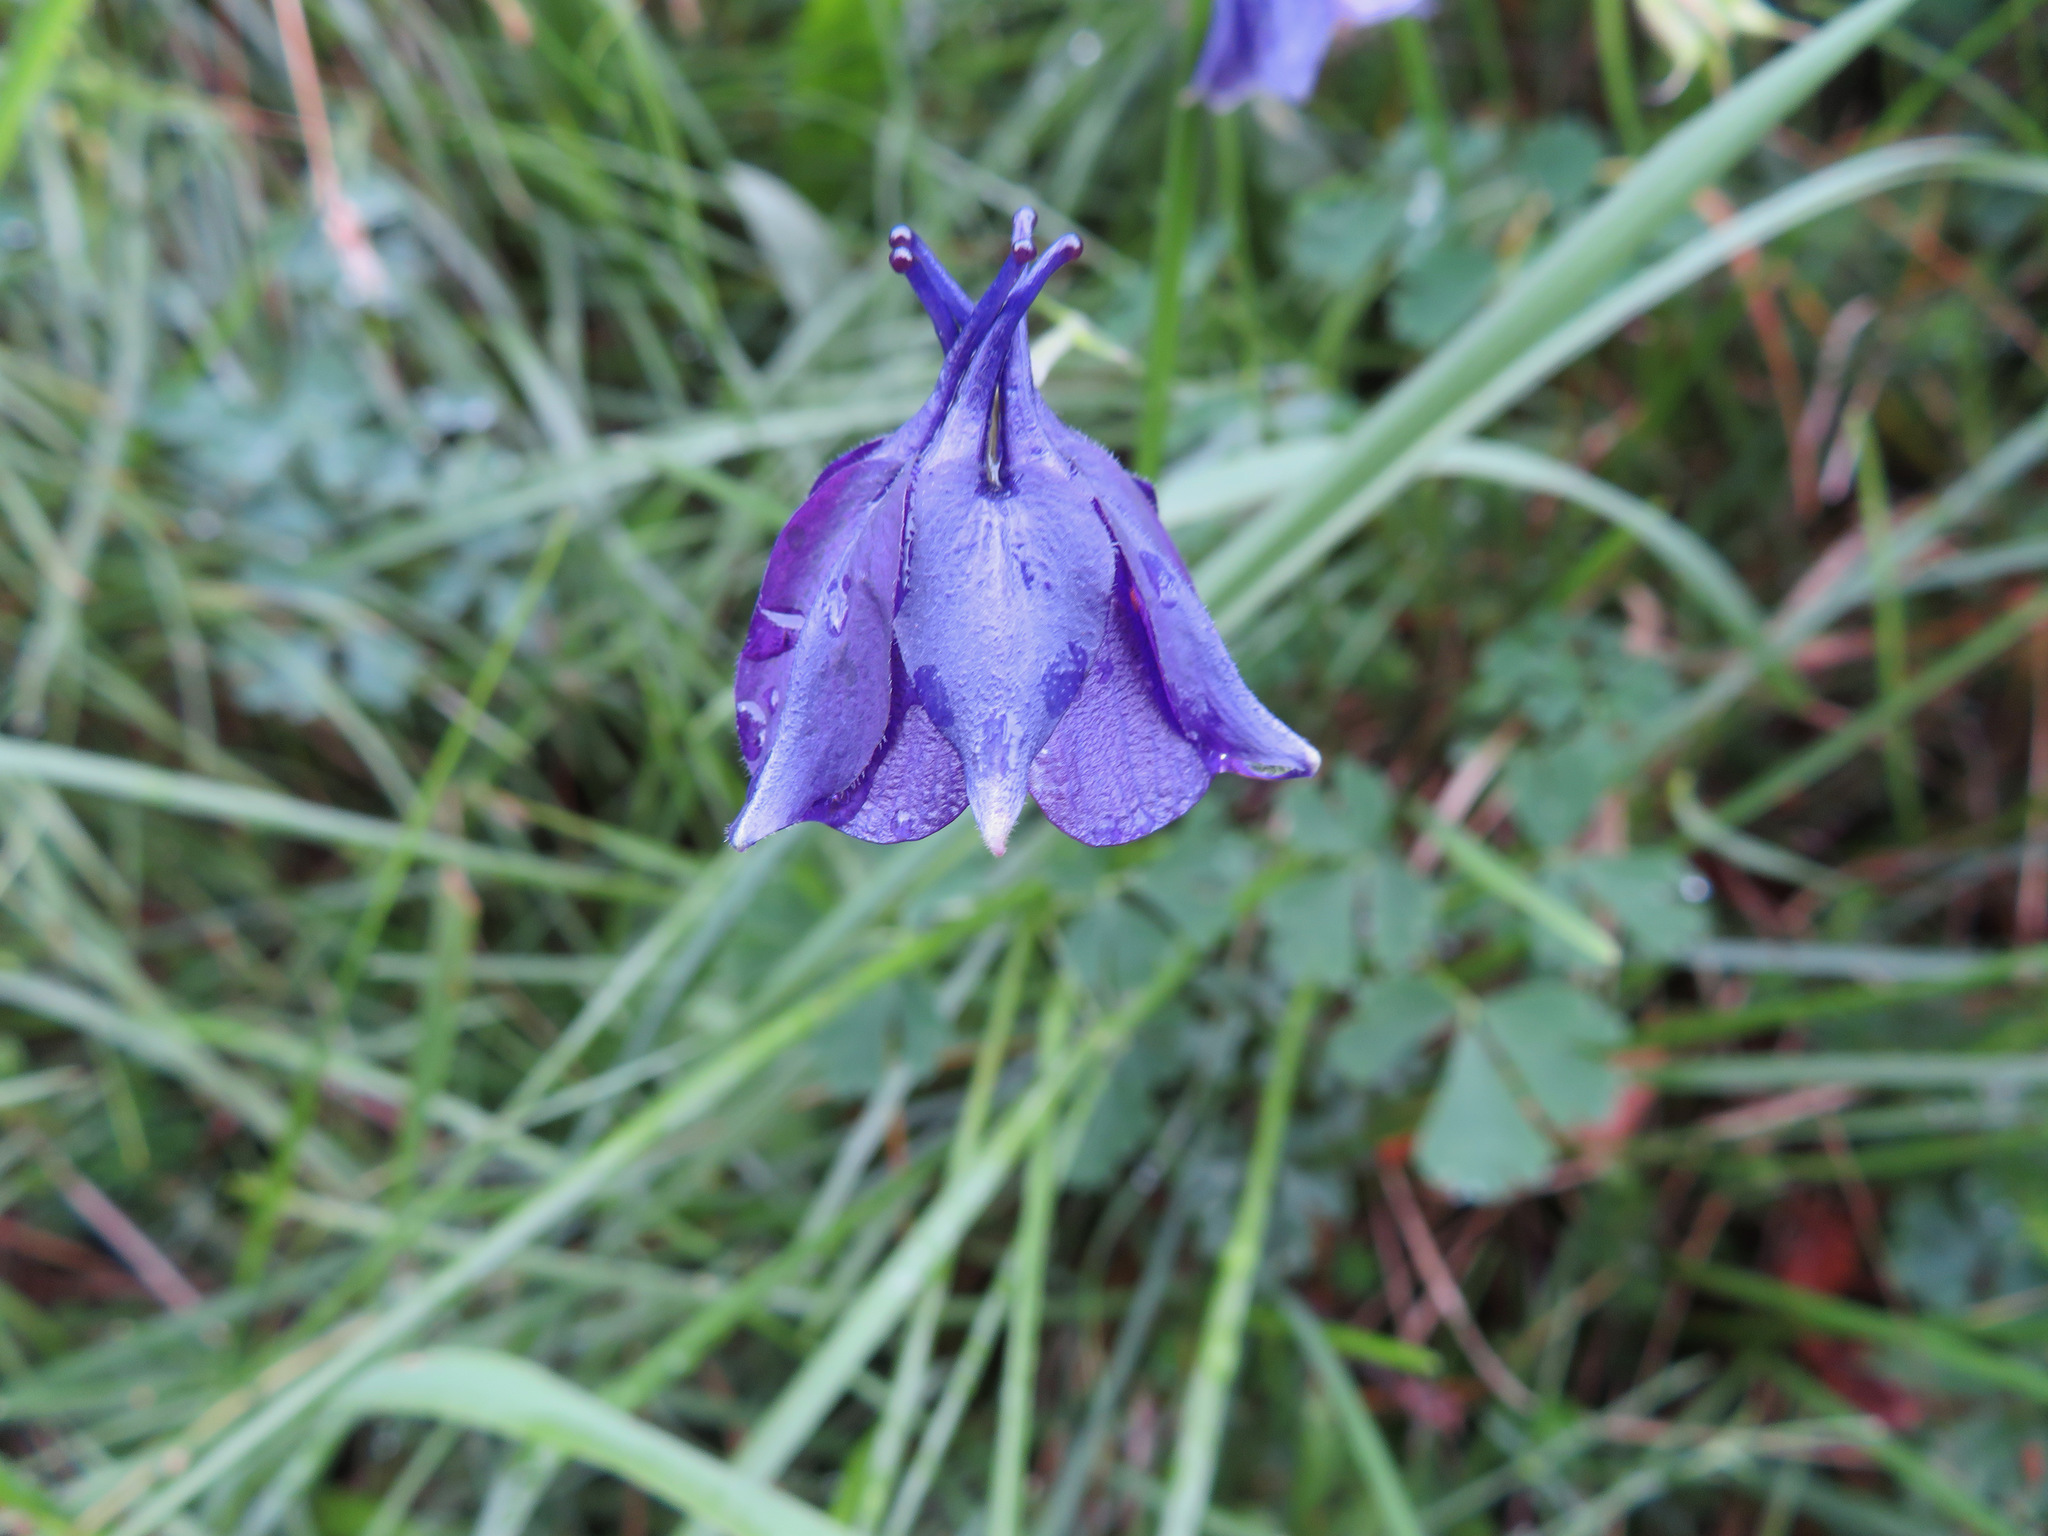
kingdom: Plantae
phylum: Tracheophyta
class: Magnoliopsida
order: Ranunculales
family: Ranunculaceae
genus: Aquilegia
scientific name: Aquilegia einseleana
